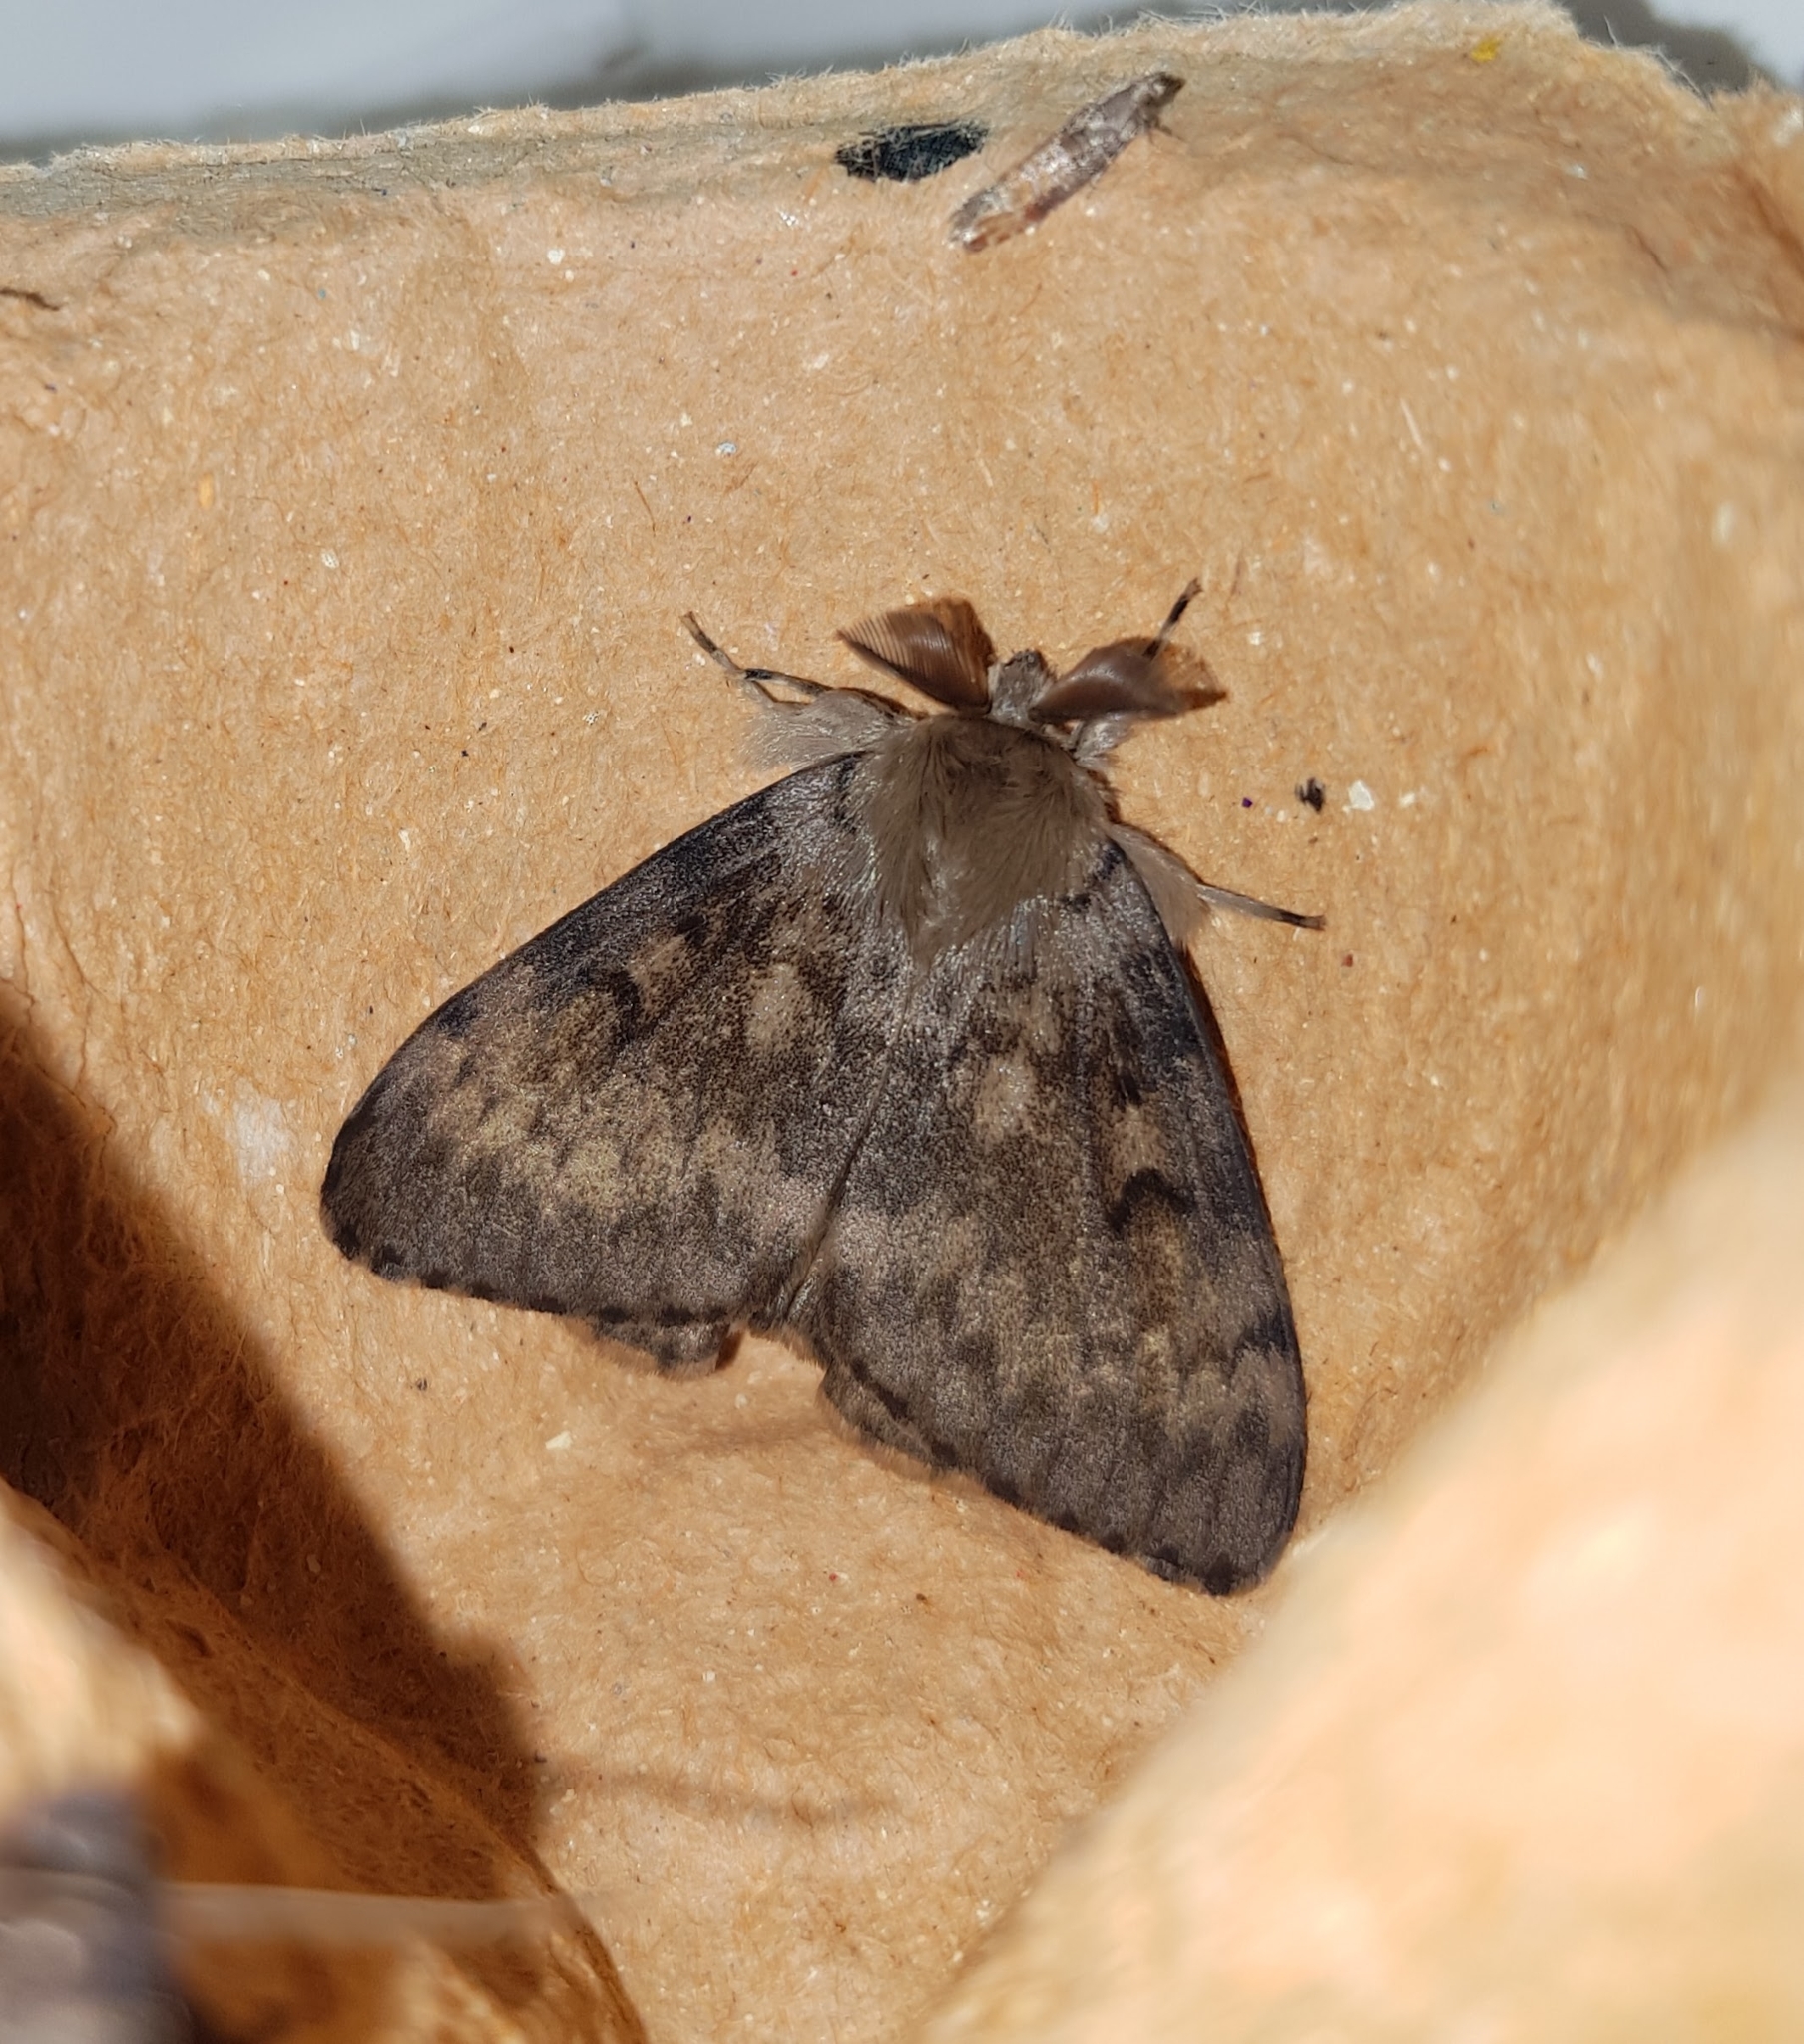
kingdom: Animalia
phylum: Arthropoda
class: Insecta
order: Lepidoptera
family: Erebidae
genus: Lymantria
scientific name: Lymantria dispar
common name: Gypsy moth
